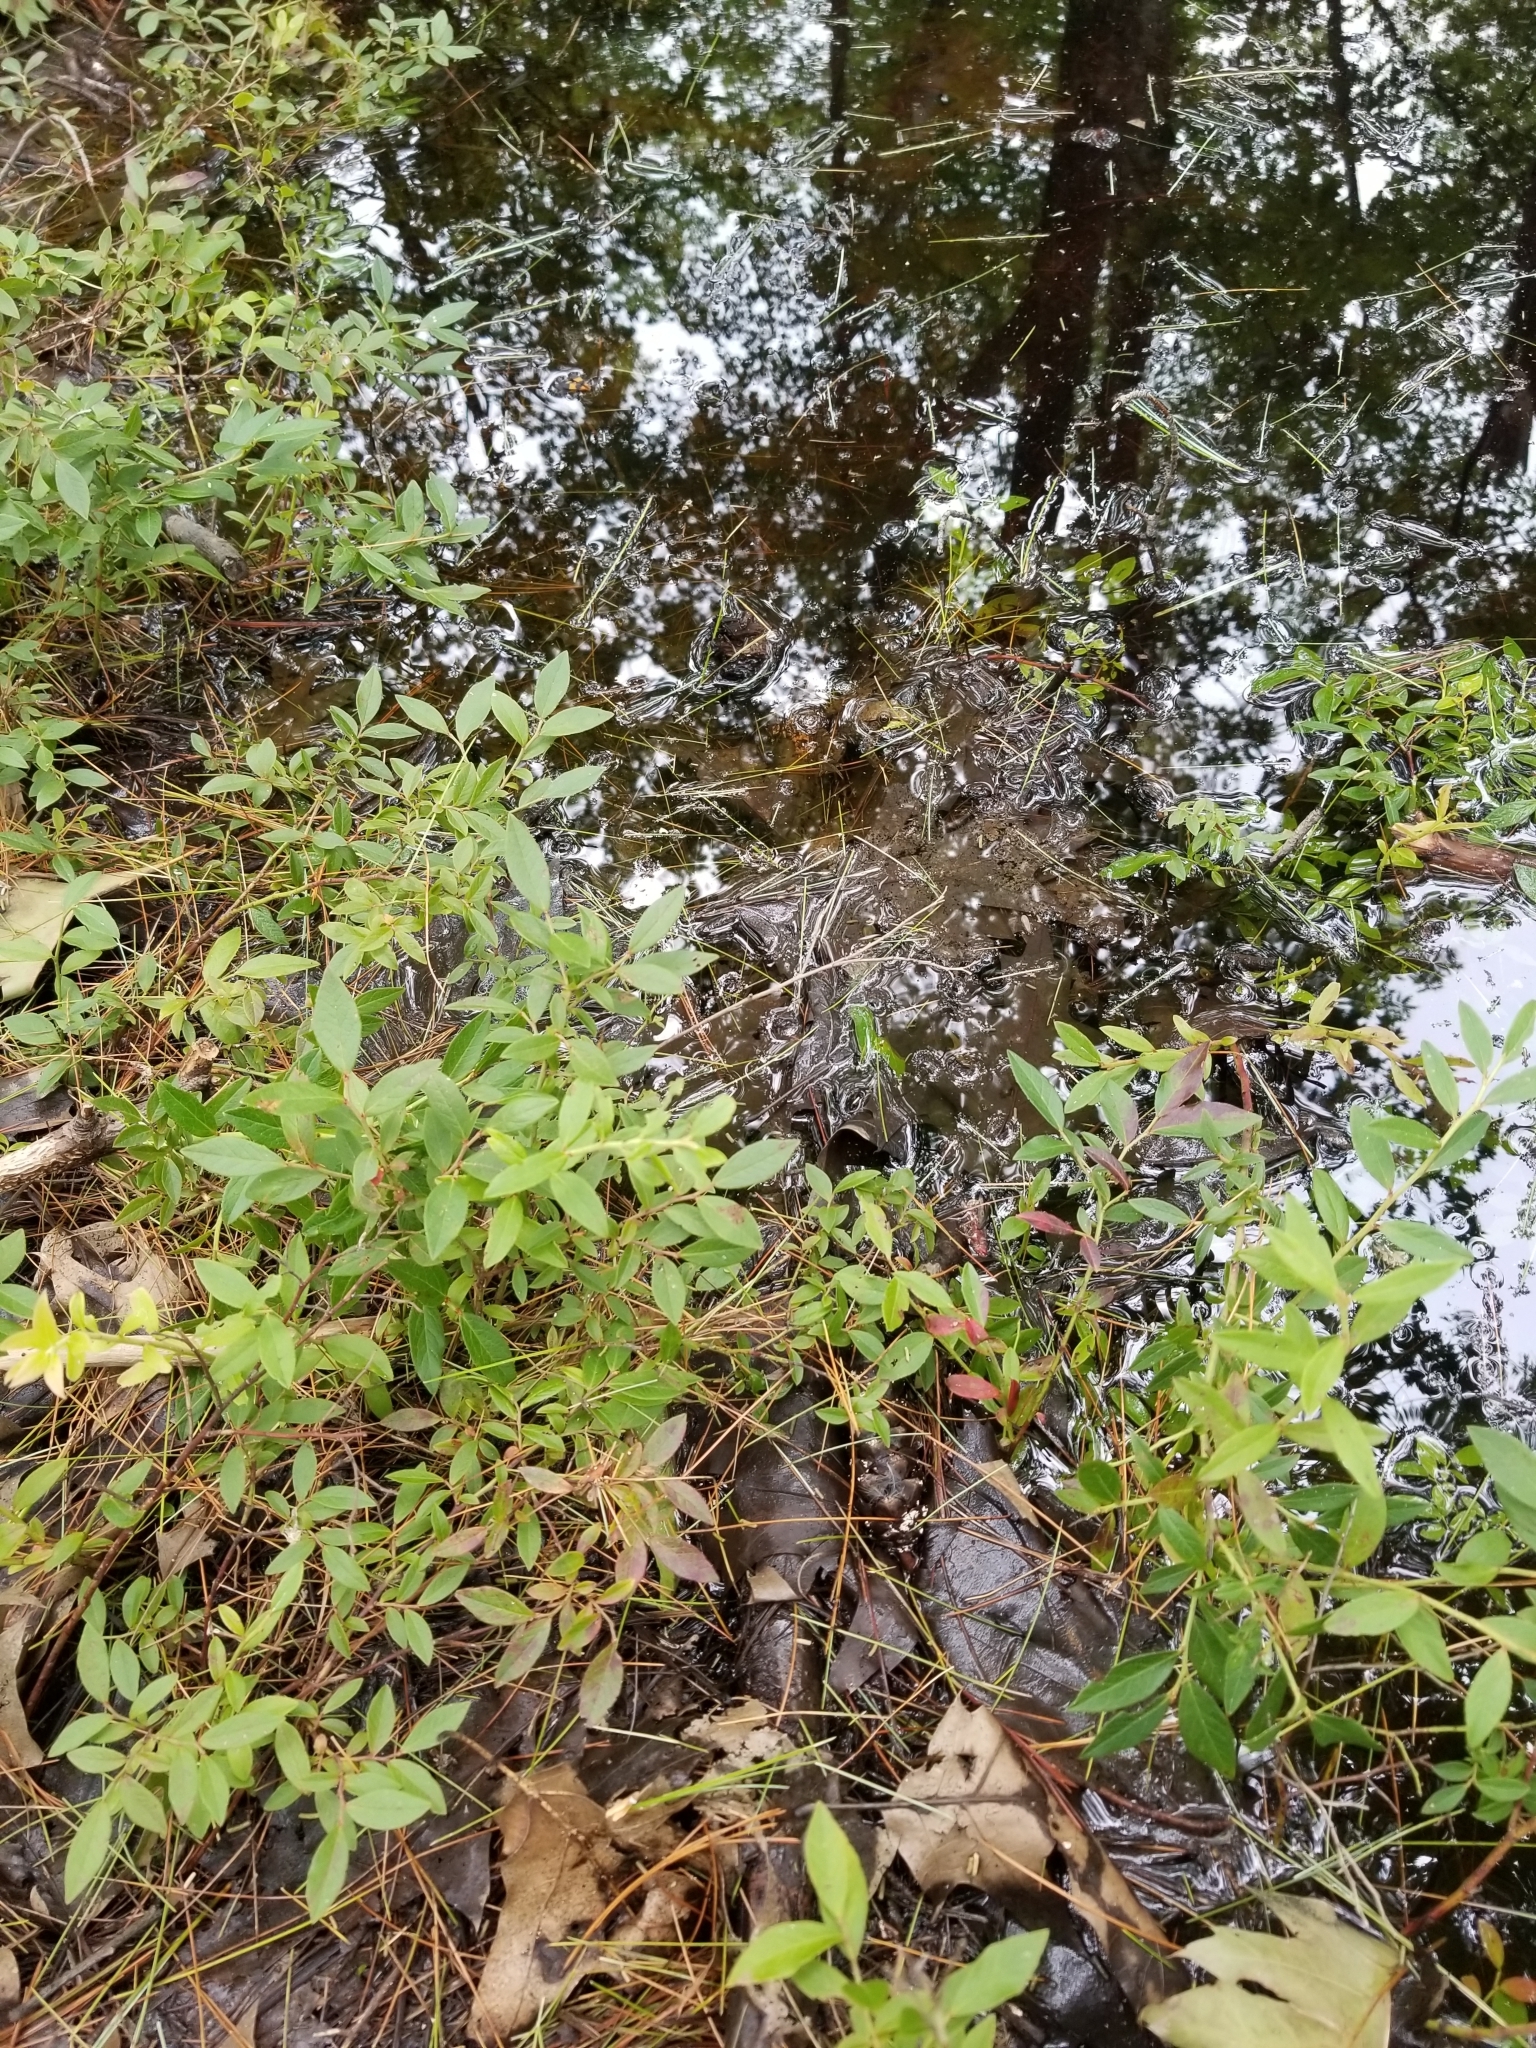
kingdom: Animalia
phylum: Chordata
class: Amphibia
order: Anura
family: Ranidae
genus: Lithobates
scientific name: Lithobates clamitans
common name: Green frog
